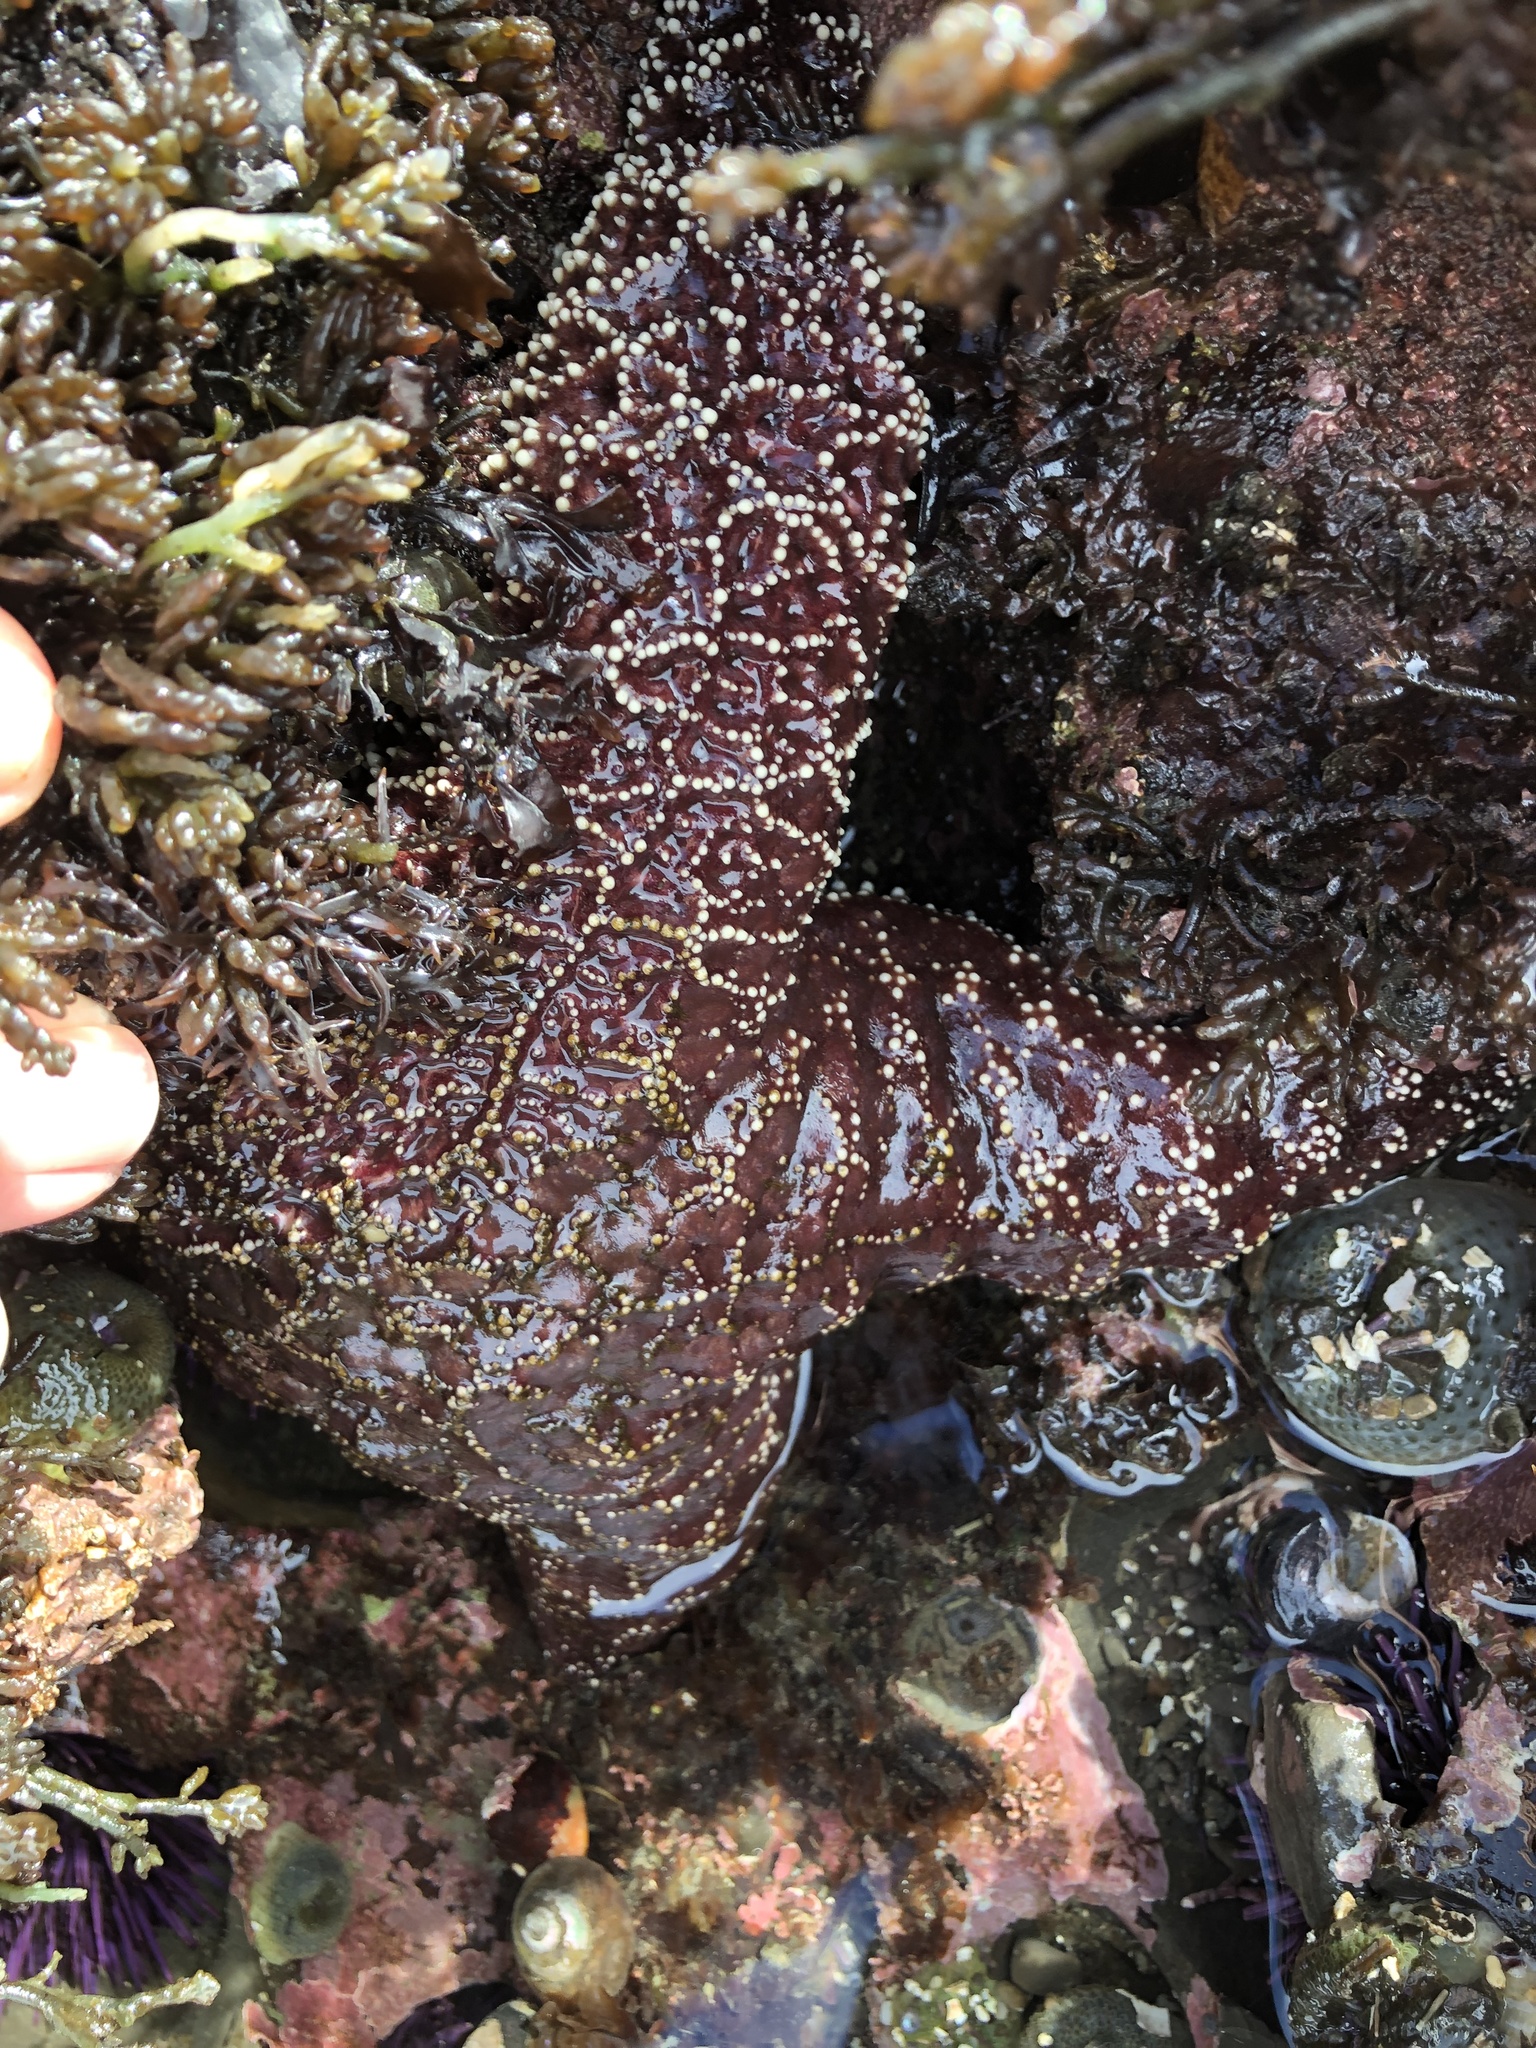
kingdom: Animalia
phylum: Echinodermata
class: Asteroidea
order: Forcipulatida
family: Asteriidae
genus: Pisaster
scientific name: Pisaster ochraceus
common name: Ochre stars
